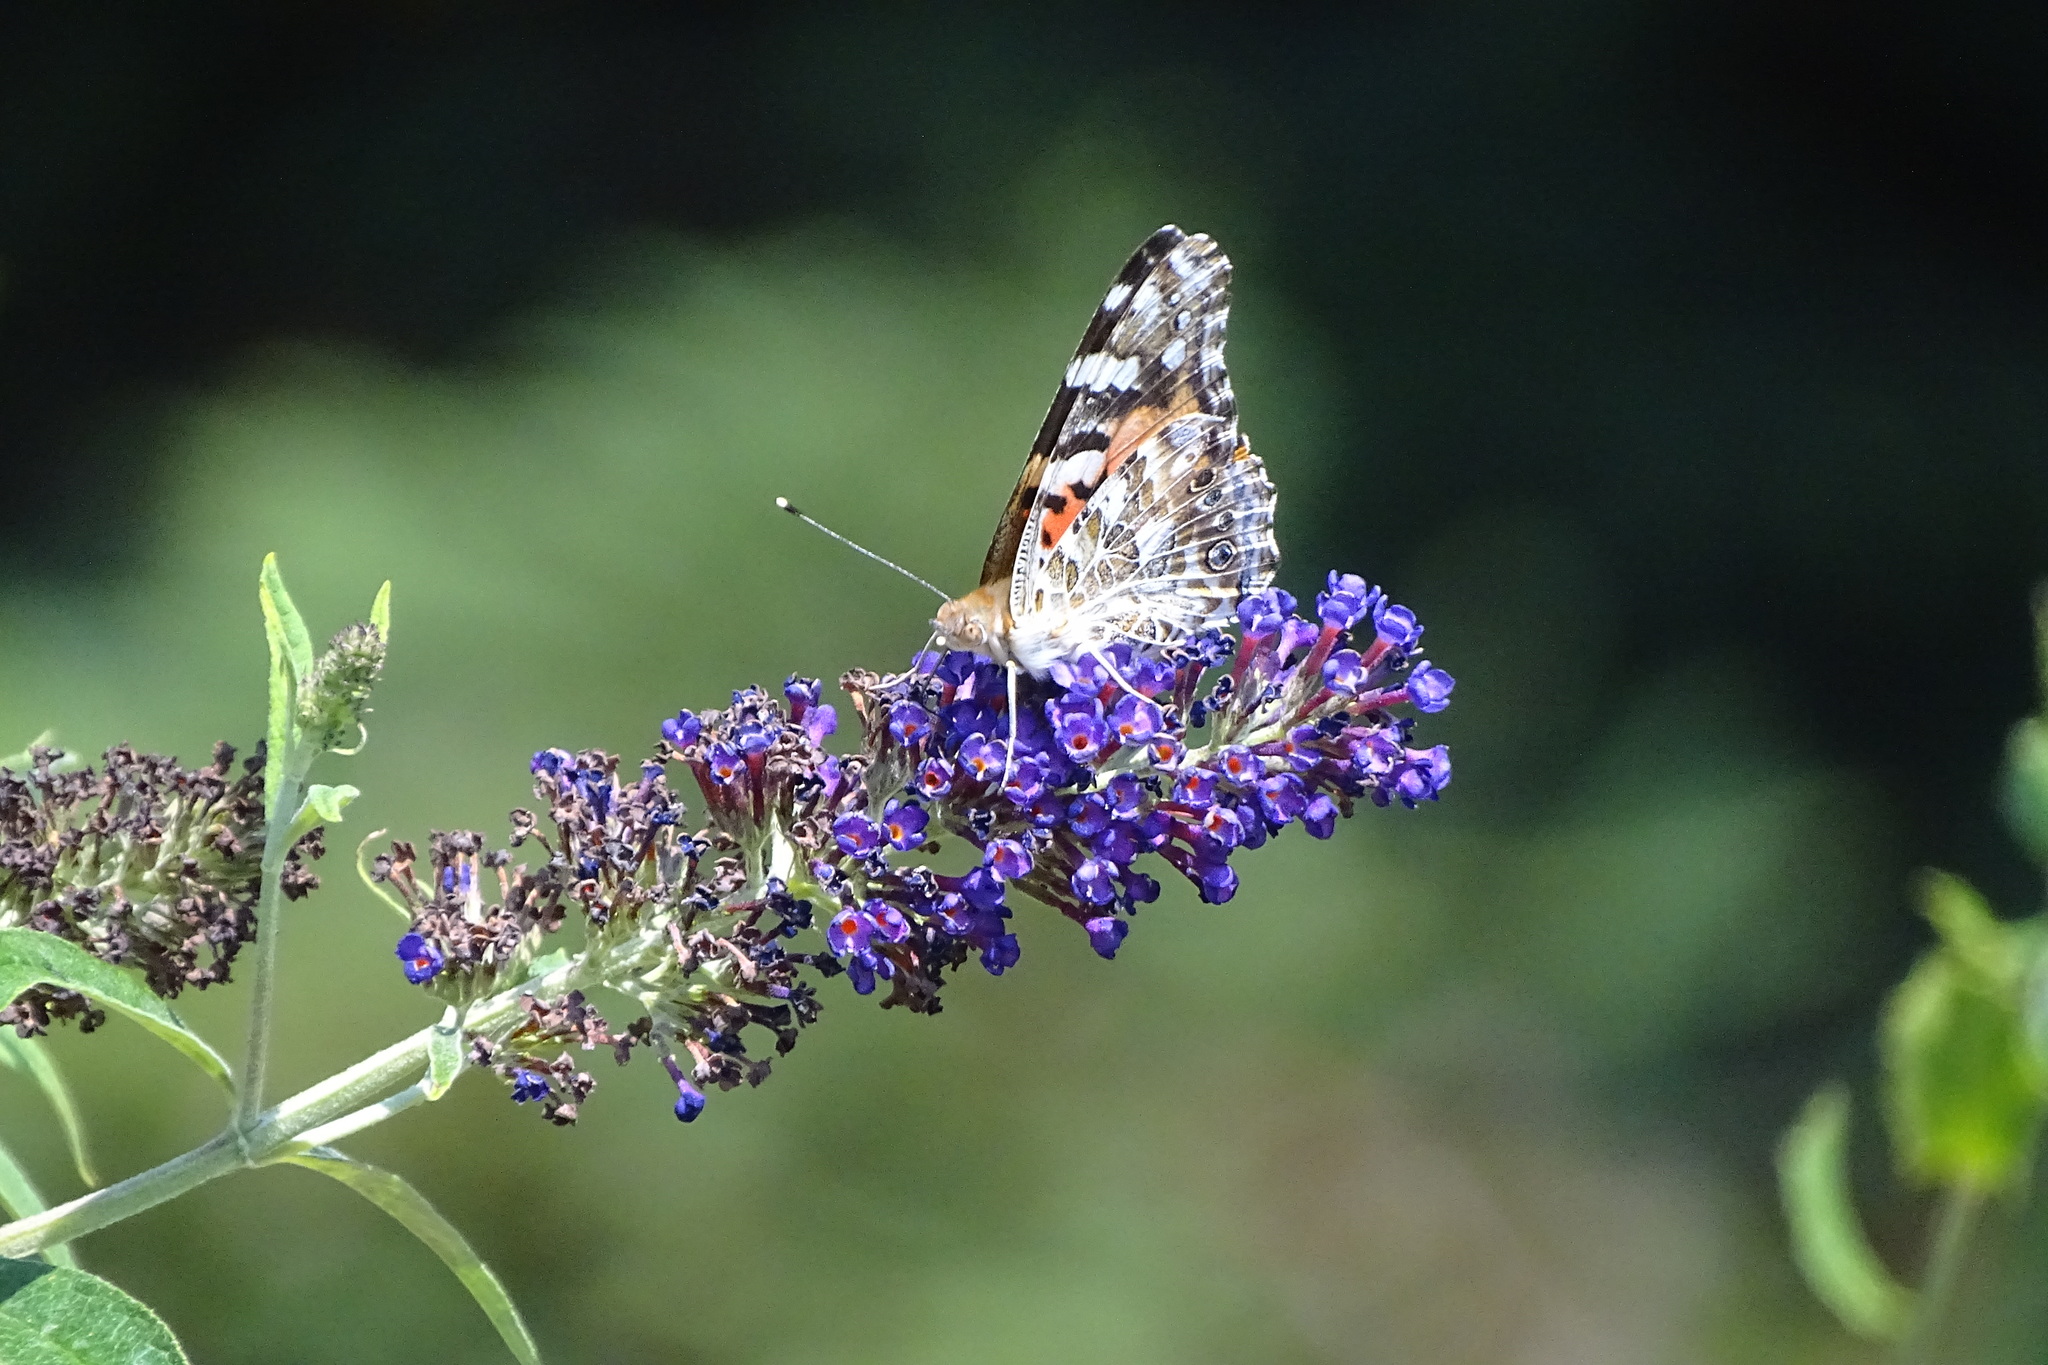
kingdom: Animalia
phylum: Arthropoda
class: Insecta
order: Lepidoptera
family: Nymphalidae
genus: Vanessa
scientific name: Vanessa cardui
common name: Painted lady
